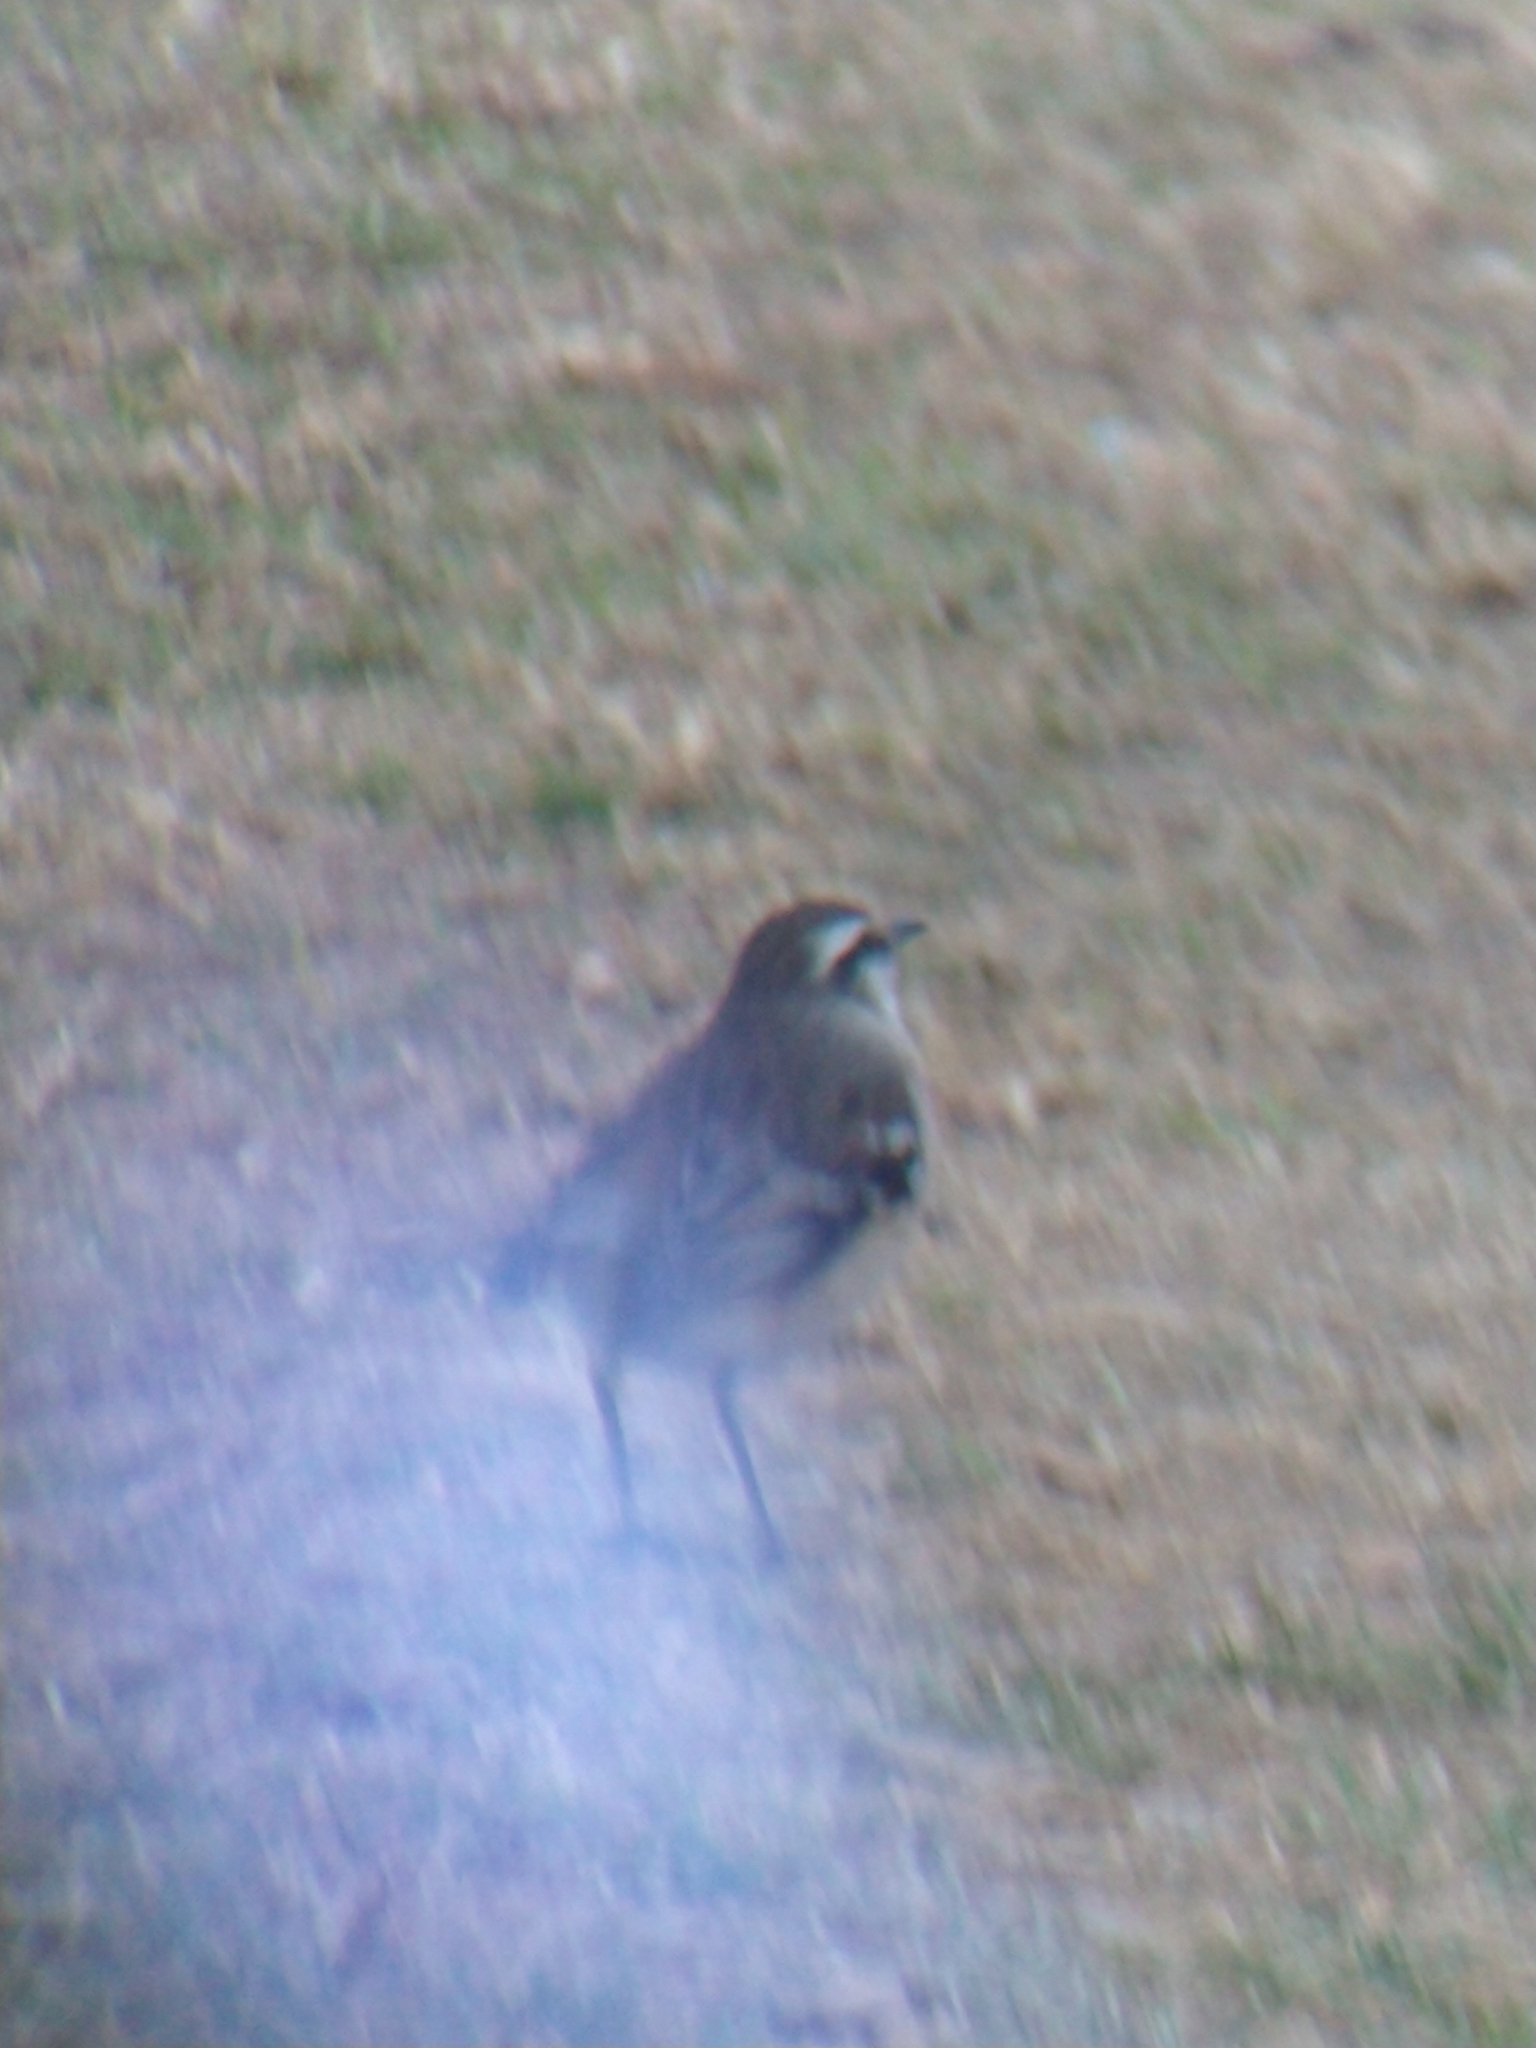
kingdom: Animalia
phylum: Chordata
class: Aves
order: Passeriformes
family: Mimidae
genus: Mimus
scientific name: Mimus saturninus
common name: Chalk-browed mockingbird
